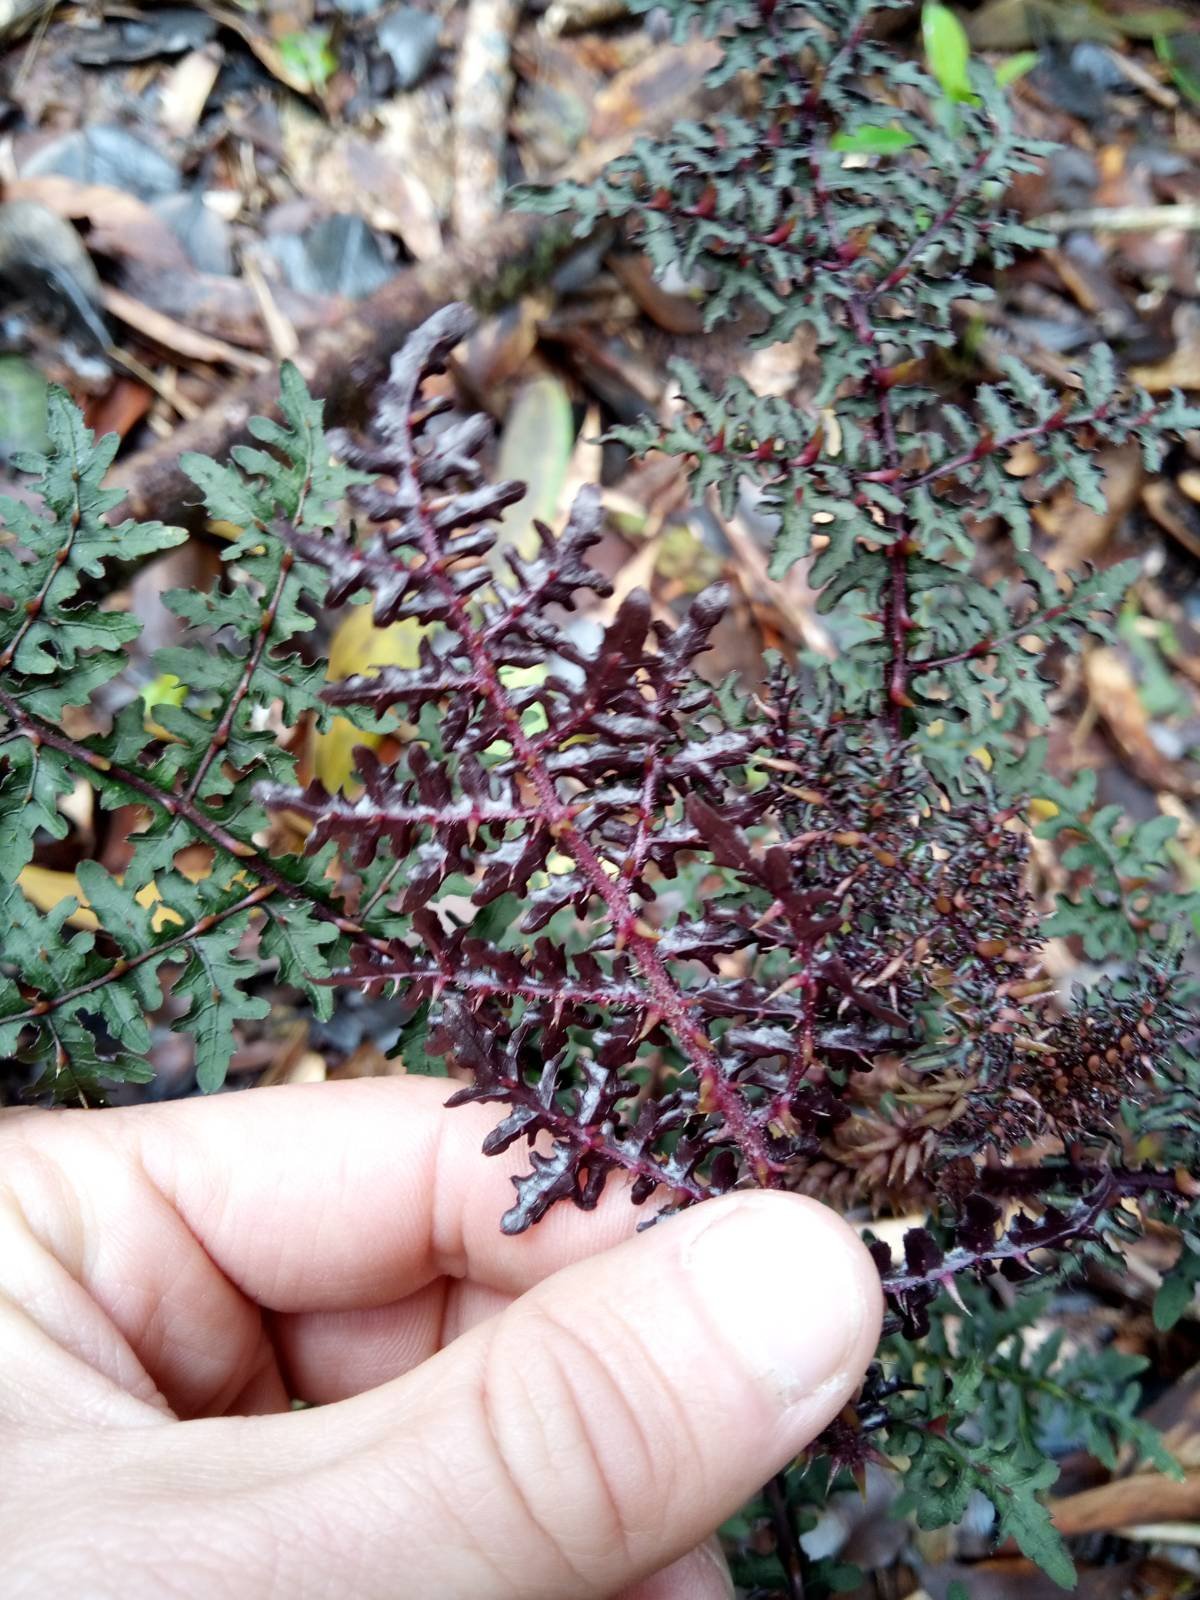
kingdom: Plantae
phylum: Tracheophyta
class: Magnoliopsida
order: Asterales
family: Campanulaceae
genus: Cyanea
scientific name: Cyanea shipmanii
